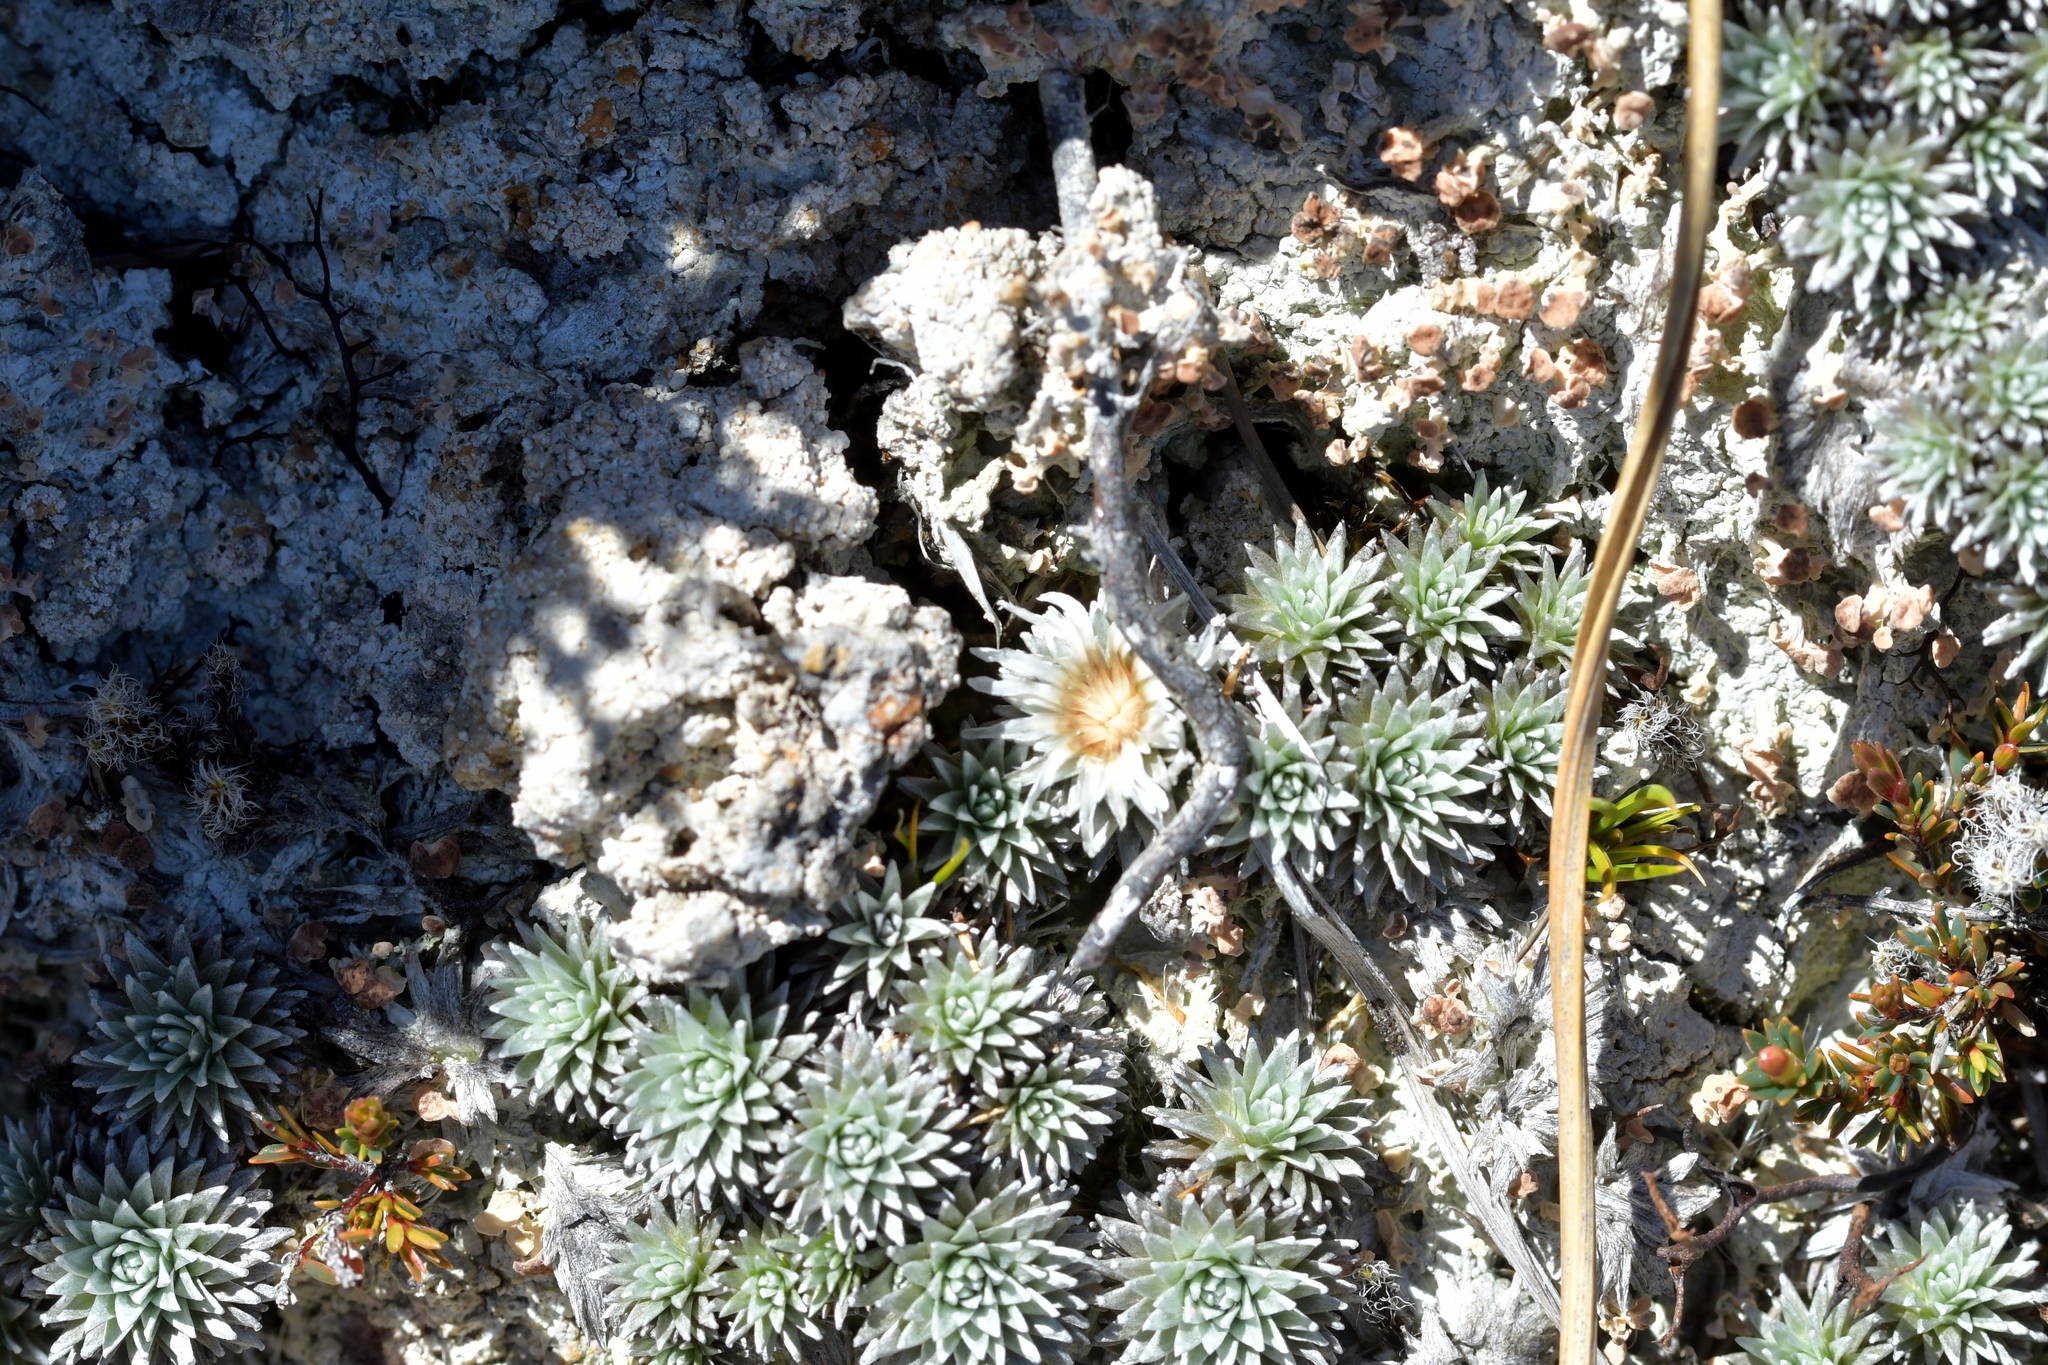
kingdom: Plantae
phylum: Tracheophyta
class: Magnoliopsida
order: Asterales
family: Asteraceae
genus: Raoulia
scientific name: Raoulia grandiflora
